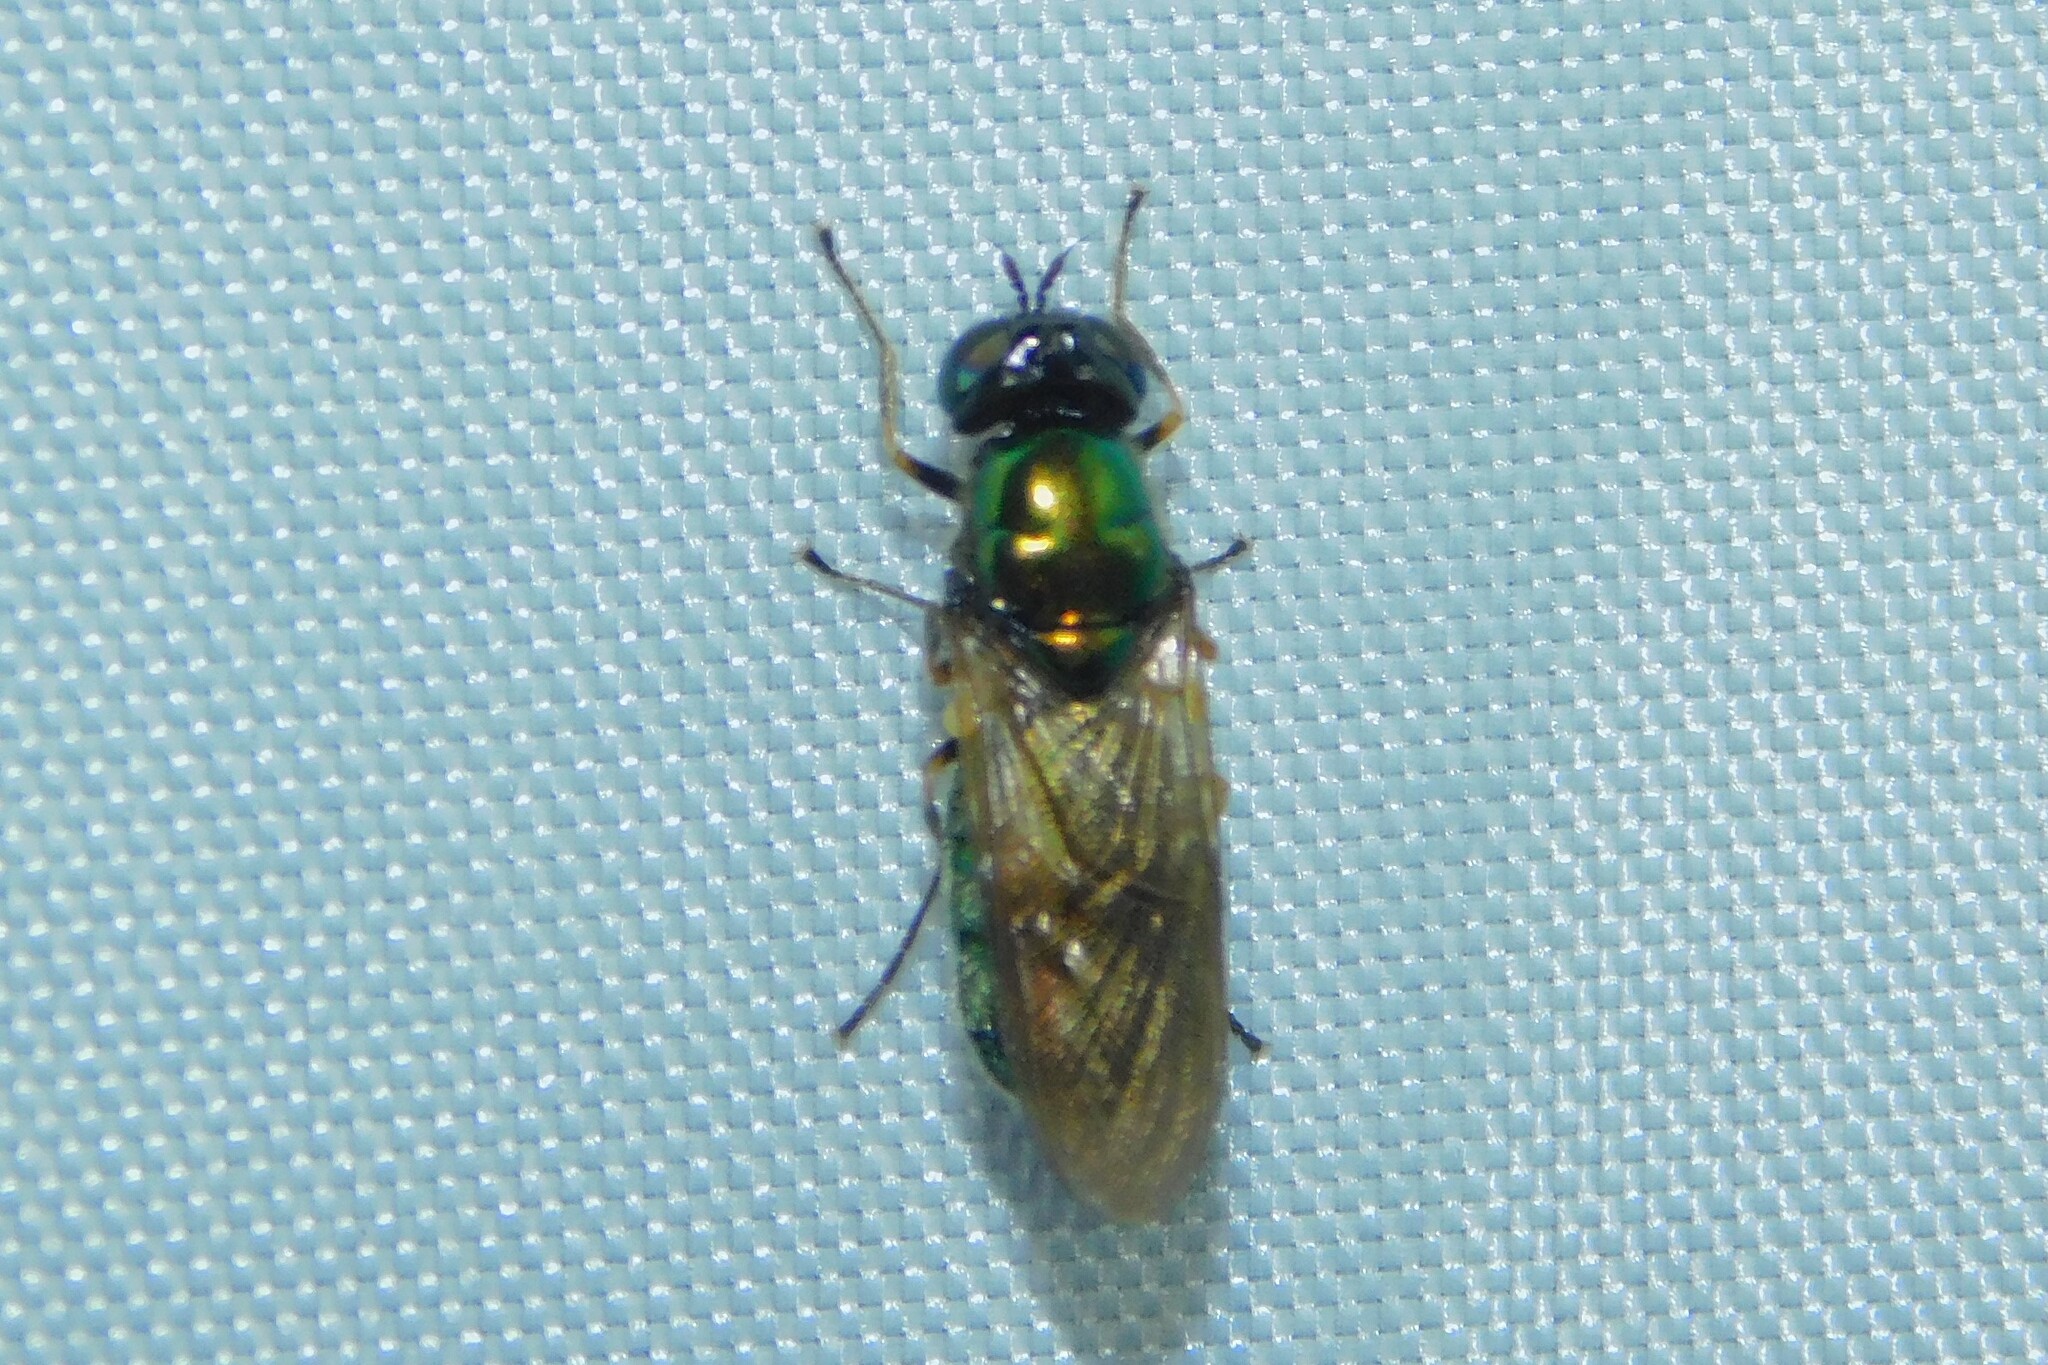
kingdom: Animalia
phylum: Arthropoda
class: Insecta
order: Diptera
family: Stratiomyidae
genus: Chloromyia
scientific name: Chloromyia formosa
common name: Soldier fly
